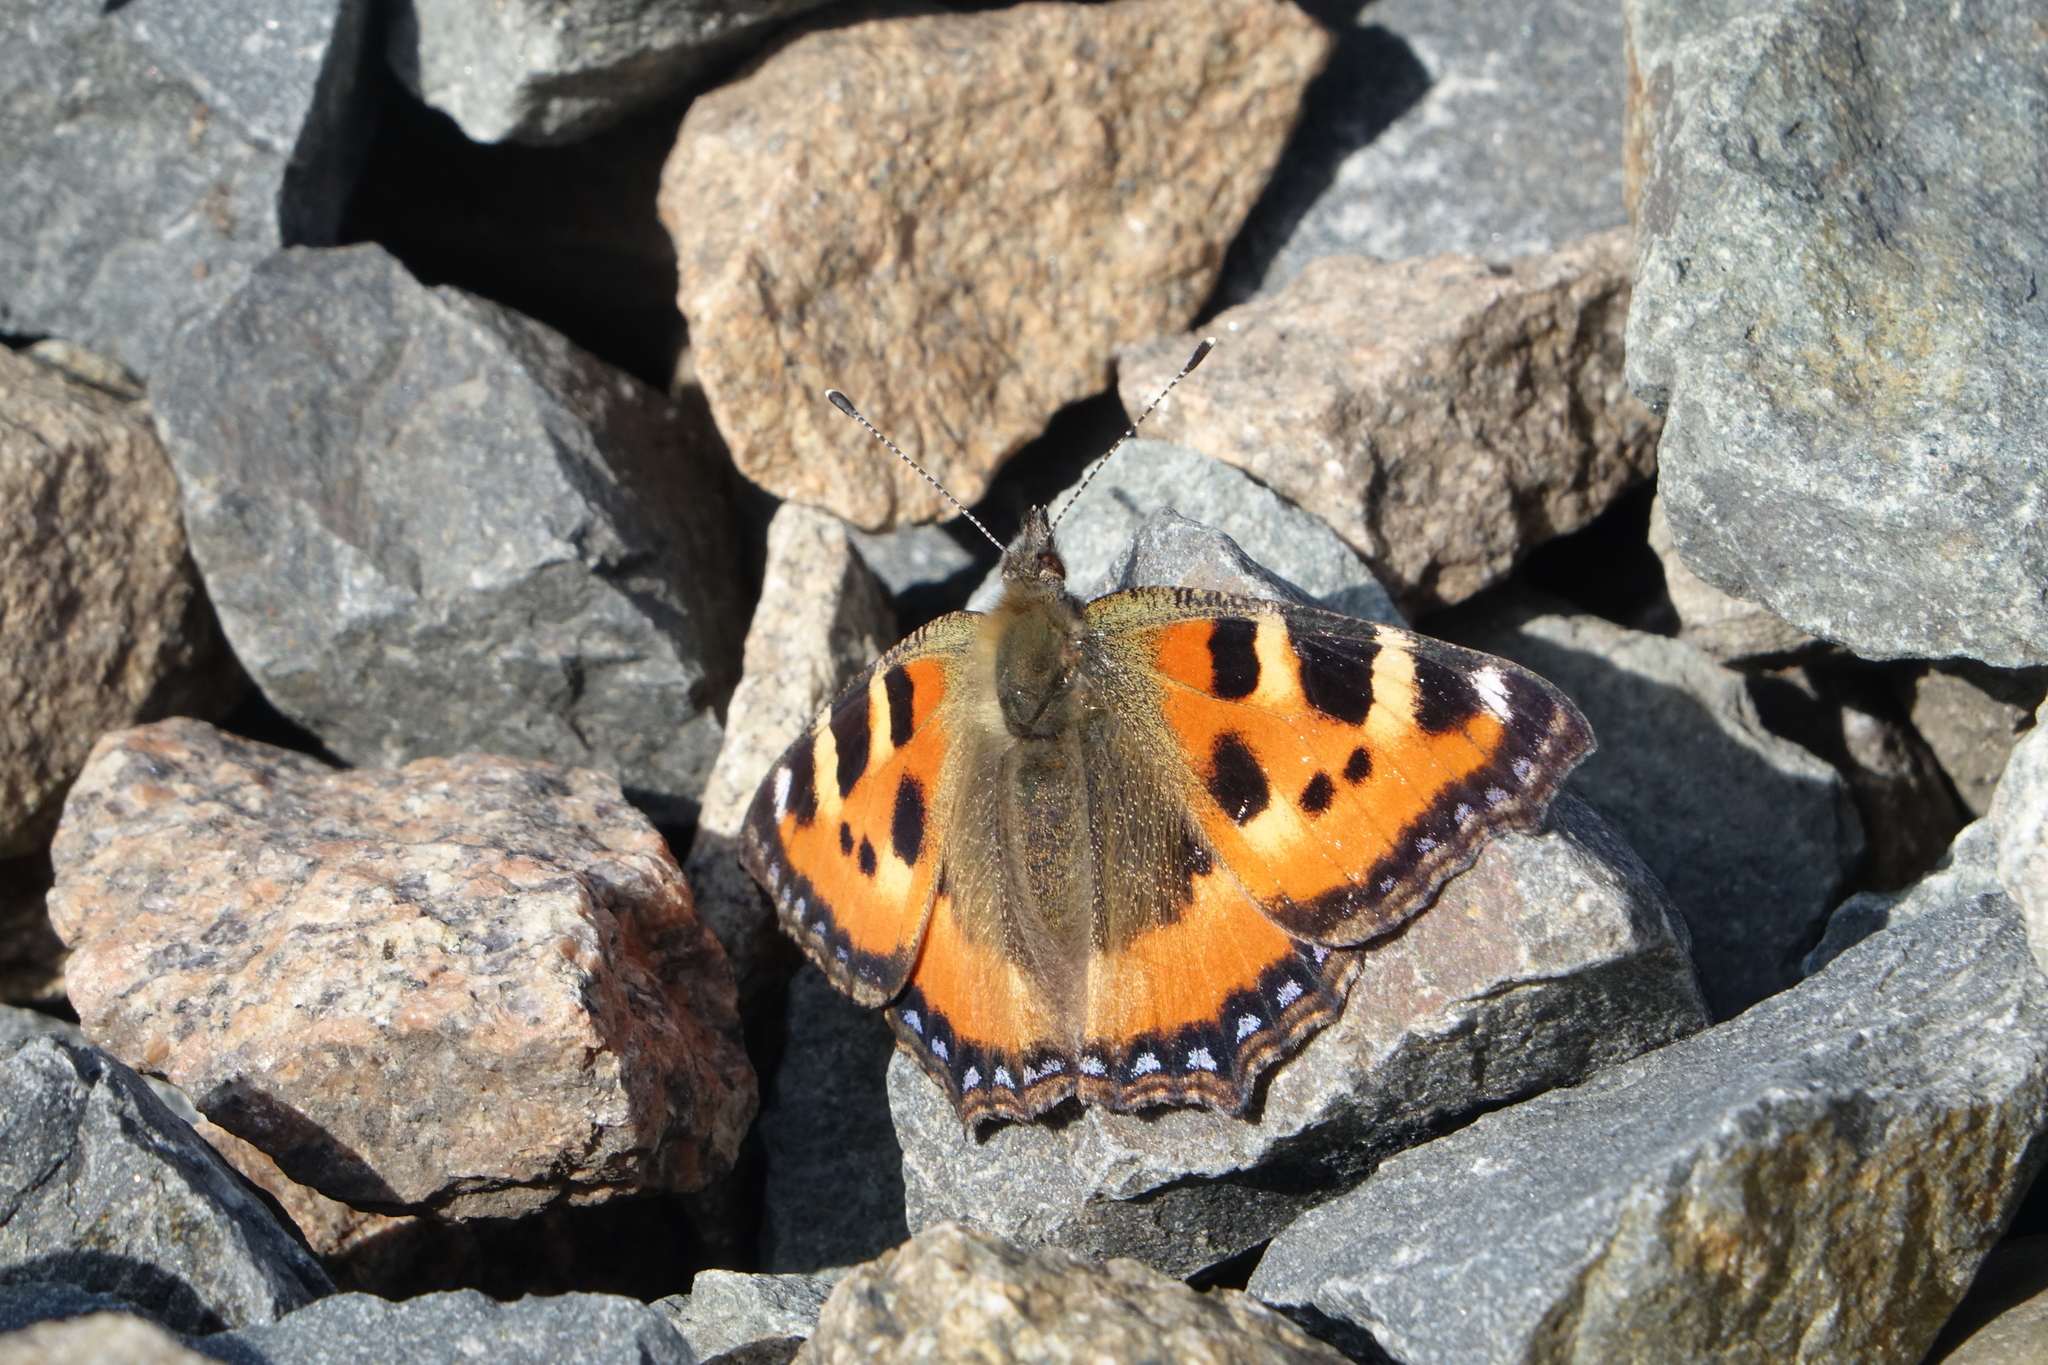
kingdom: Animalia
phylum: Arthropoda
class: Insecta
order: Lepidoptera
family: Nymphalidae
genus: Aglais
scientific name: Aglais urticae
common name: Small tortoiseshell
